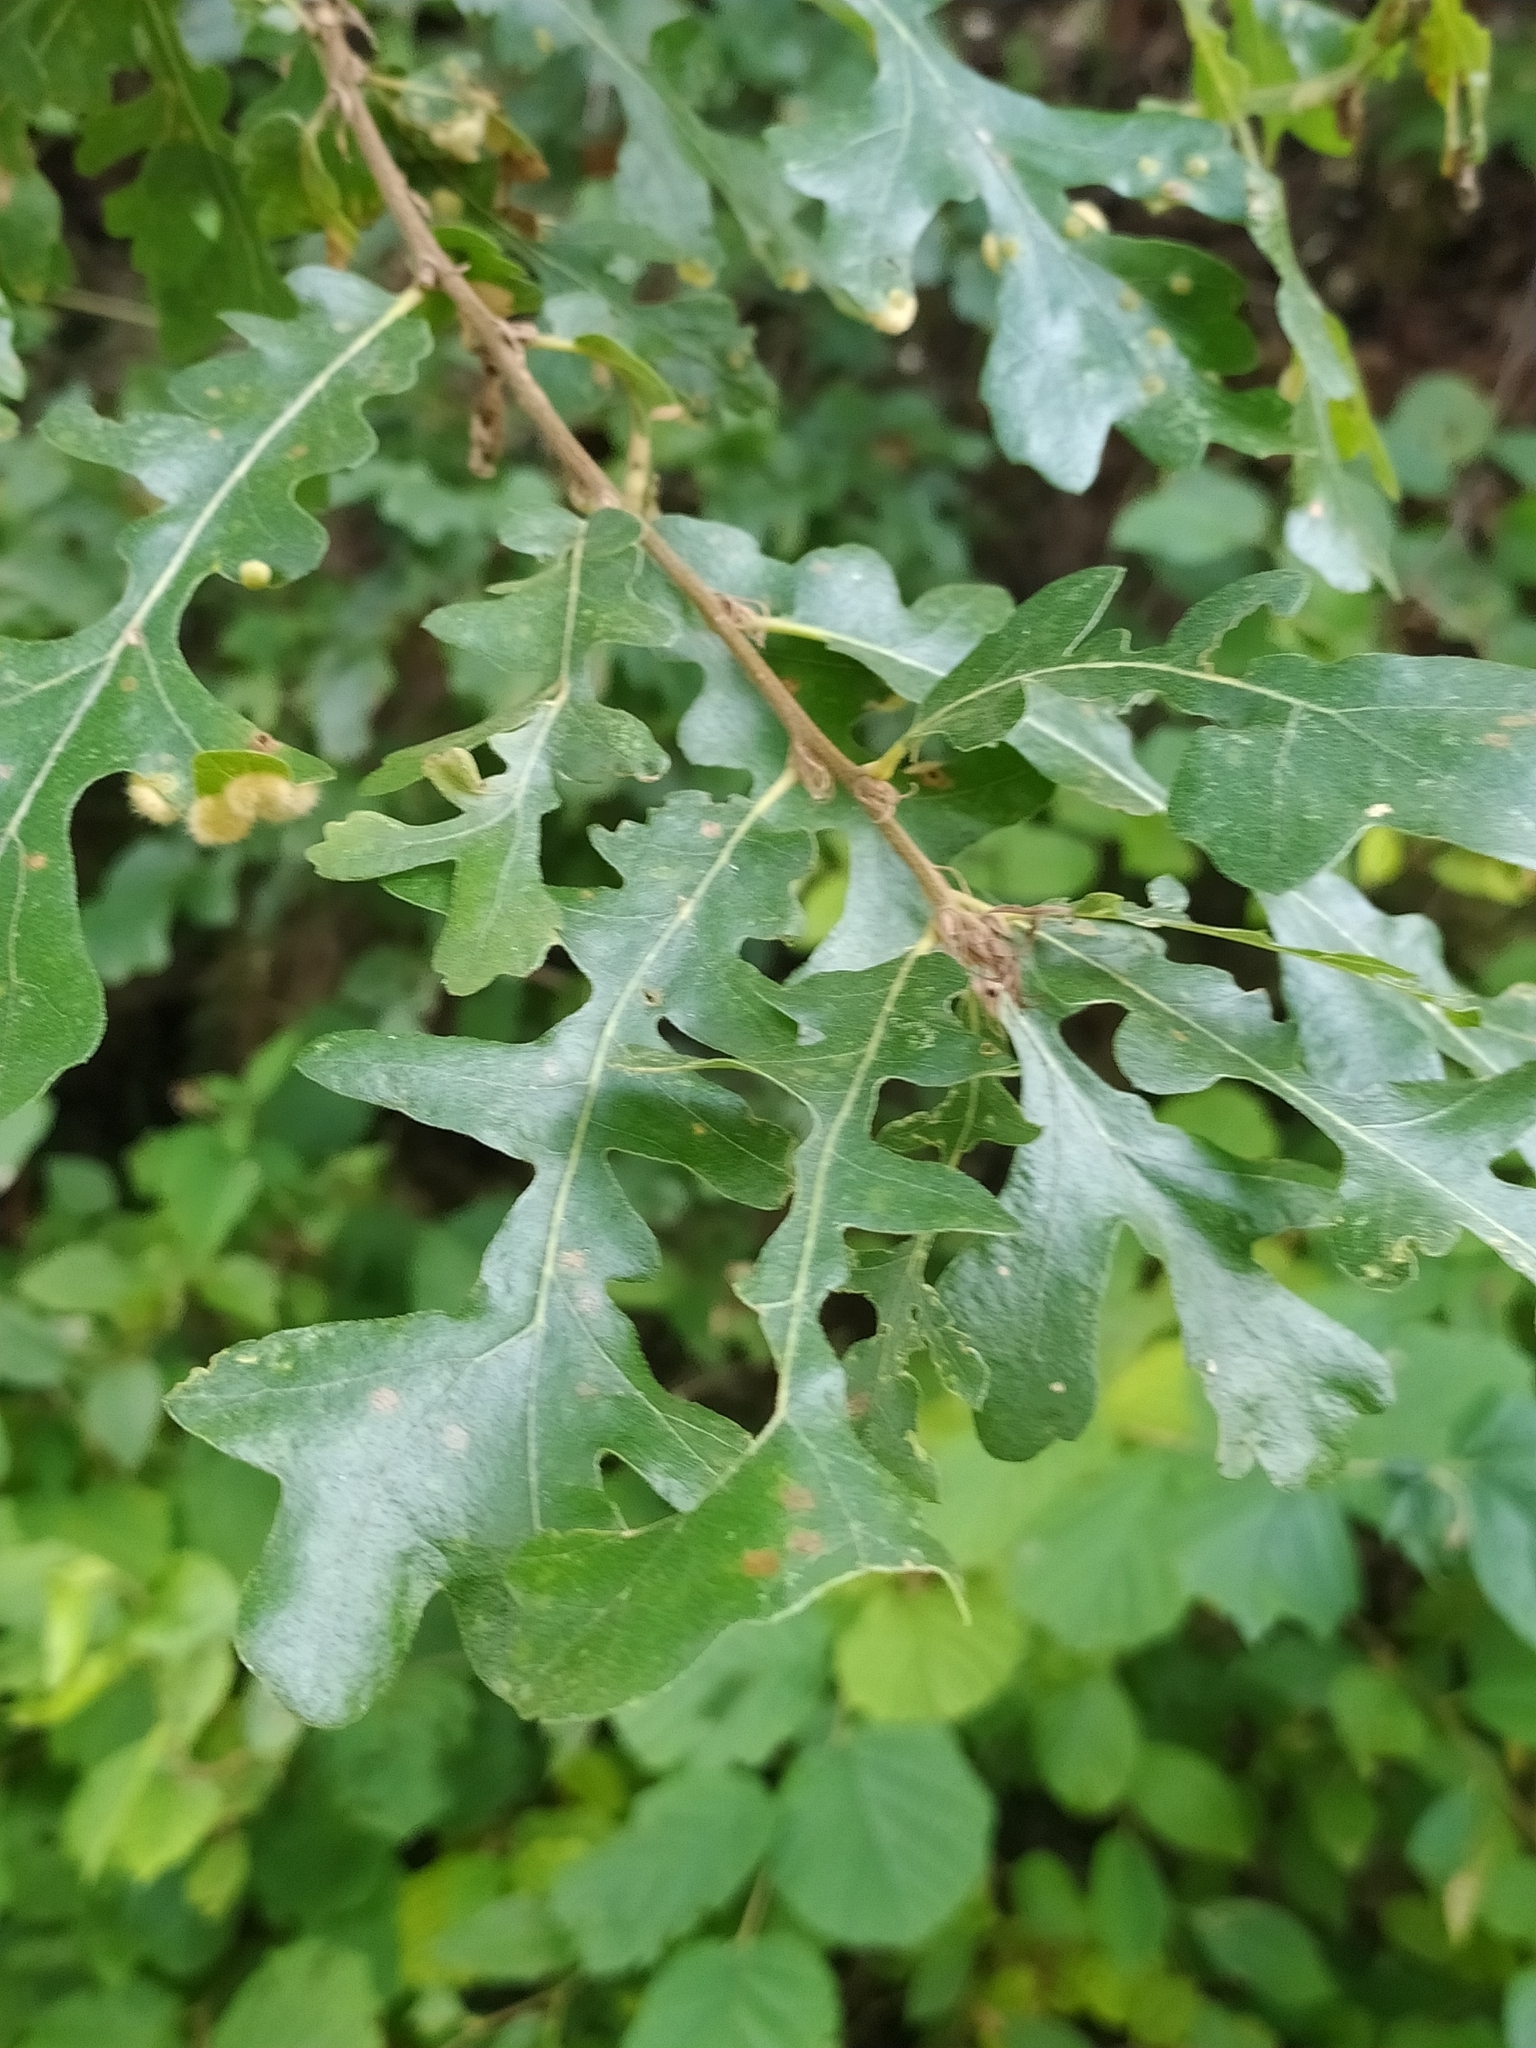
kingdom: Plantae
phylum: Tracheophyta
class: Magnoliopsida
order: Fagales
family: Fagaceae
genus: Quercus
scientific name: Quercus cerris
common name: Turkey oak
